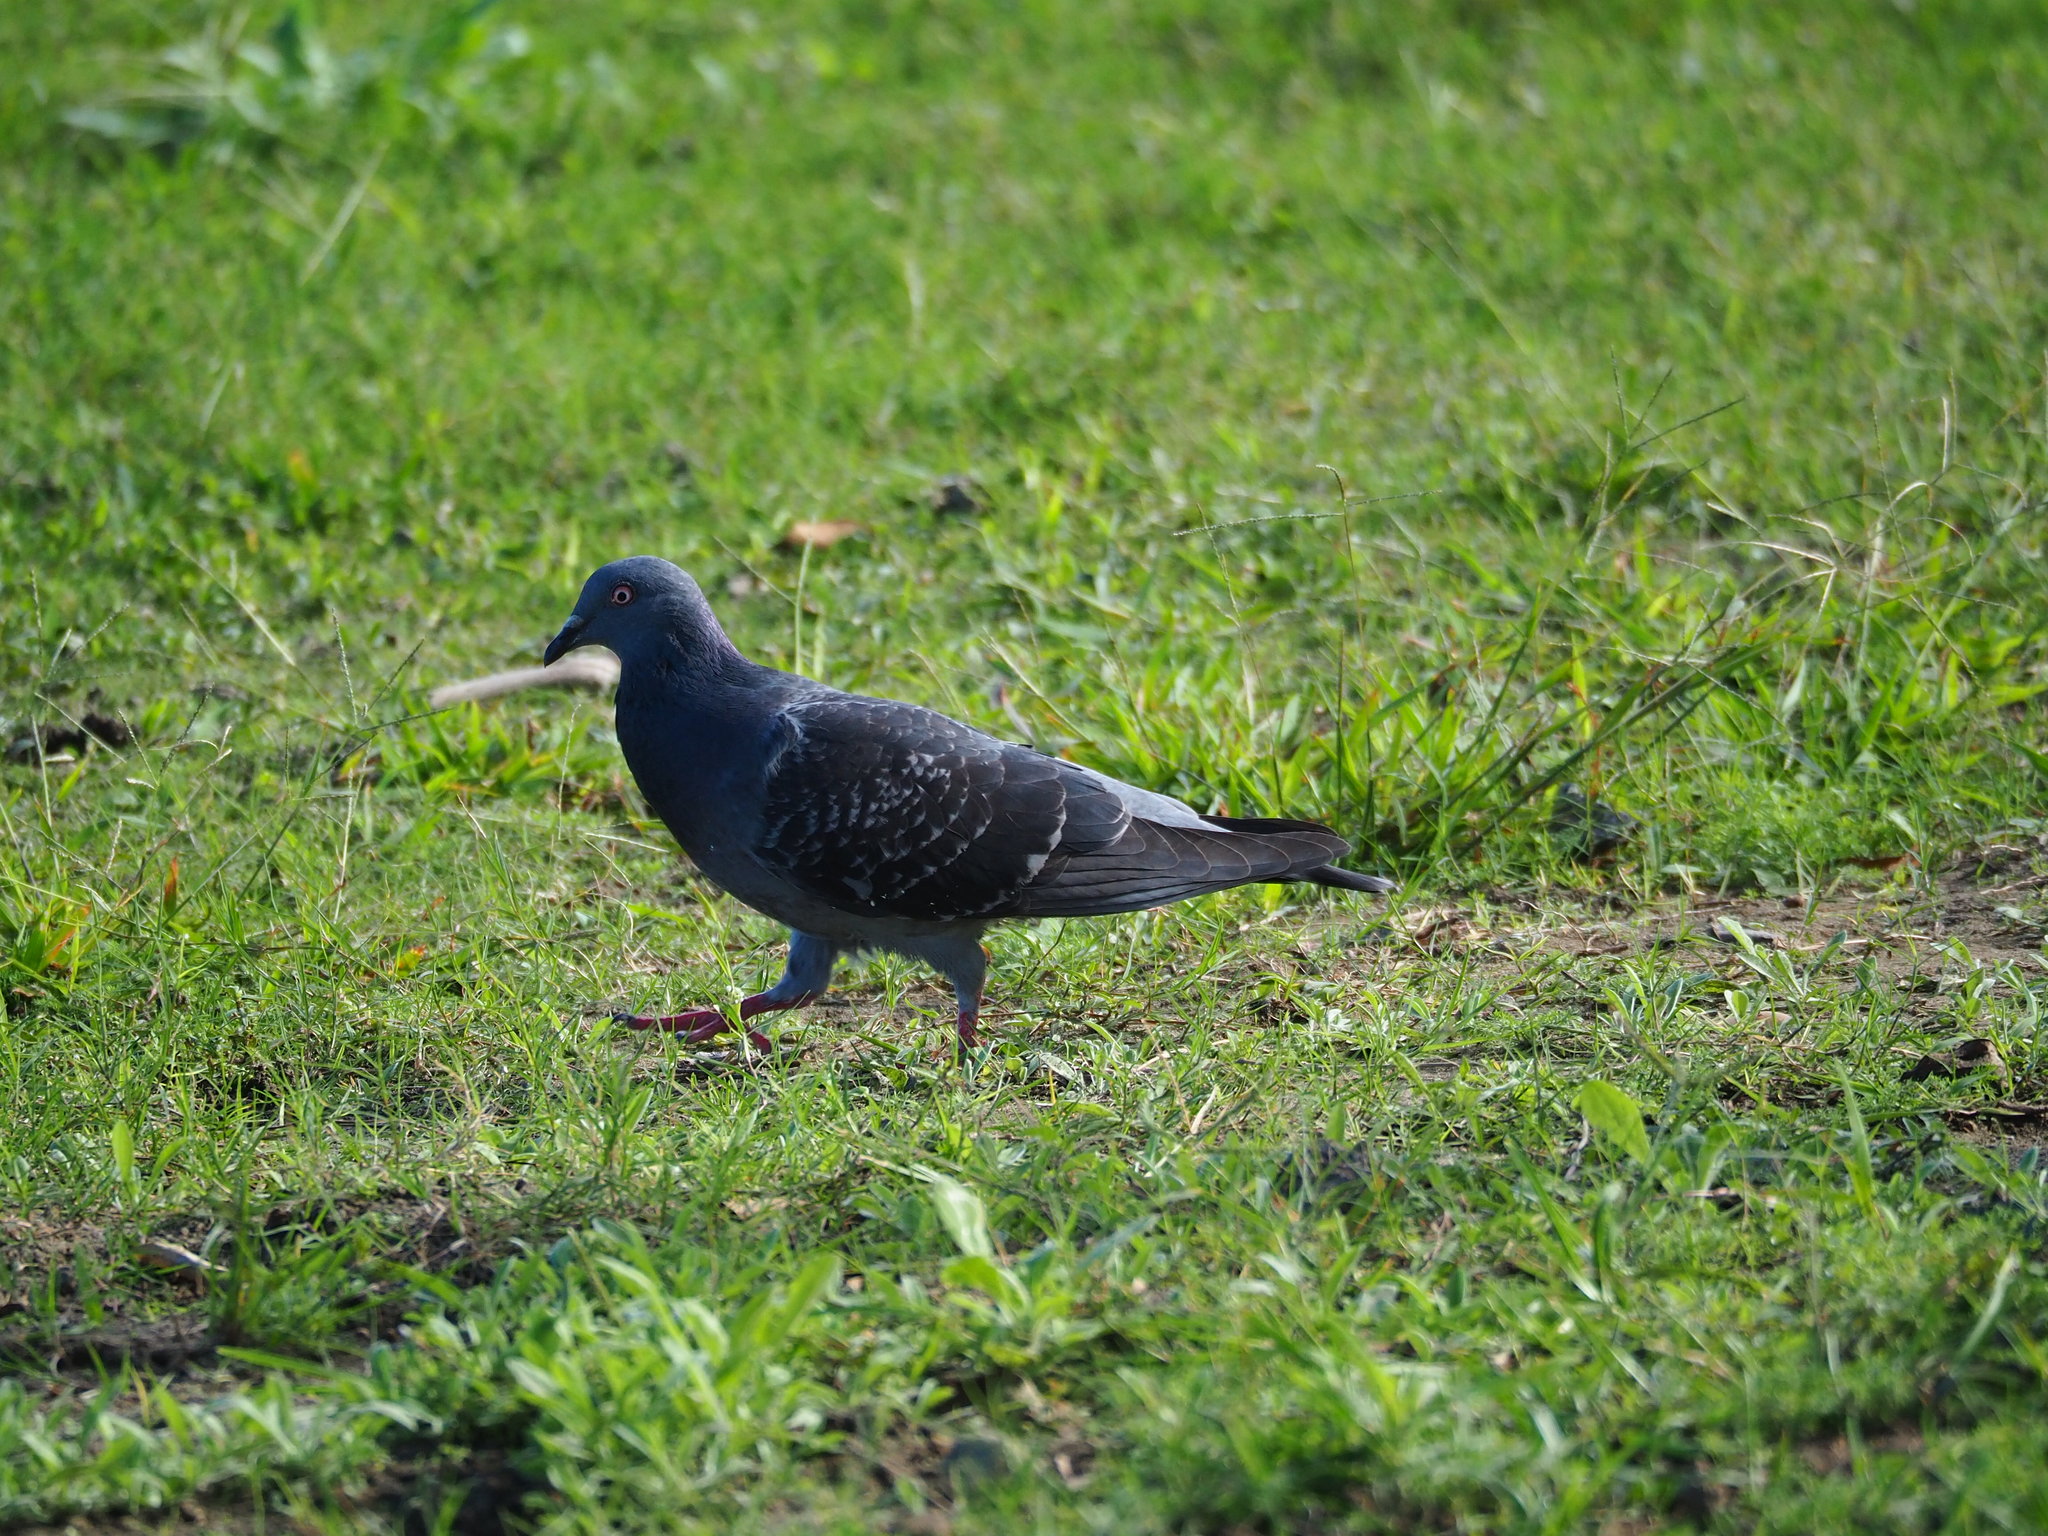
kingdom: Animalia
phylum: Chordata
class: Aves
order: Columbiformes
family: Columbidae
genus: Columba
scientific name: Columba livia
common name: Rock pigeon
